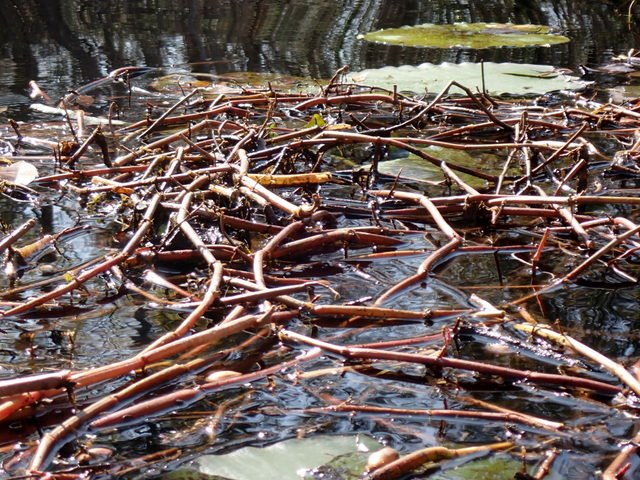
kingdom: Plantae
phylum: Tracheophyta
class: Magnoliopsida
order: Caryophyllales
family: Amaranthaceae
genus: Alternanthera
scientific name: Alternanthera philoxeroides
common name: Alligatorweed
